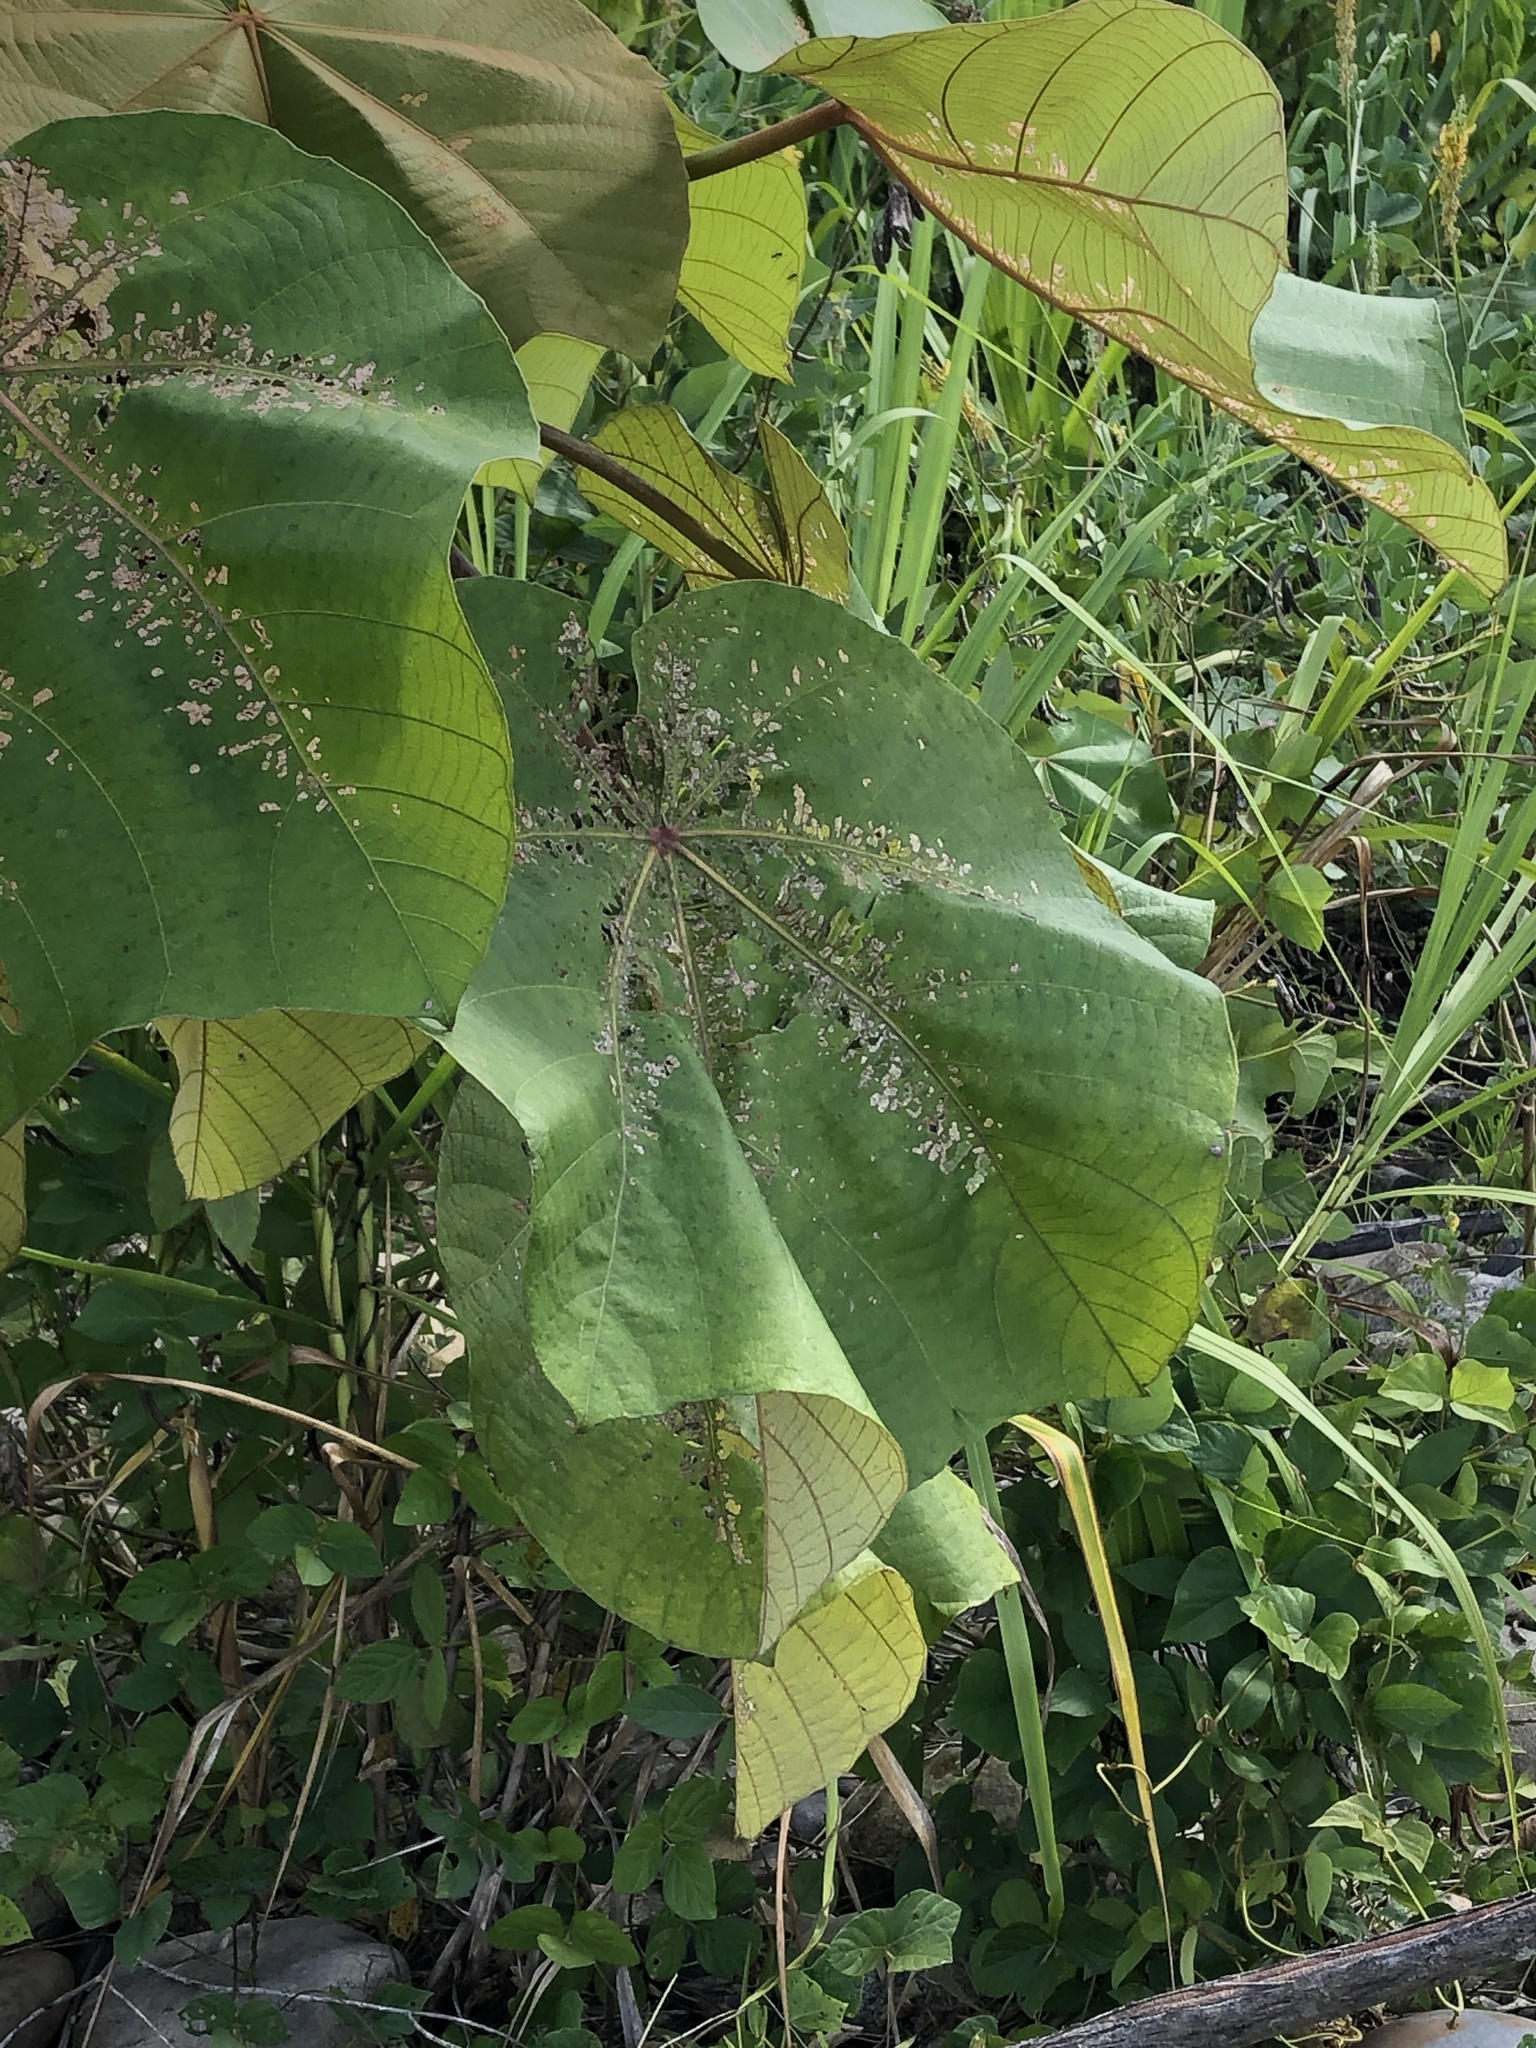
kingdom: Plantae
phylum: Tracheophyta
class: Magnoliopsida
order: Malvales
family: Malvaceae
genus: Ochroma
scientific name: Ochroma pyramidale
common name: Balsa
